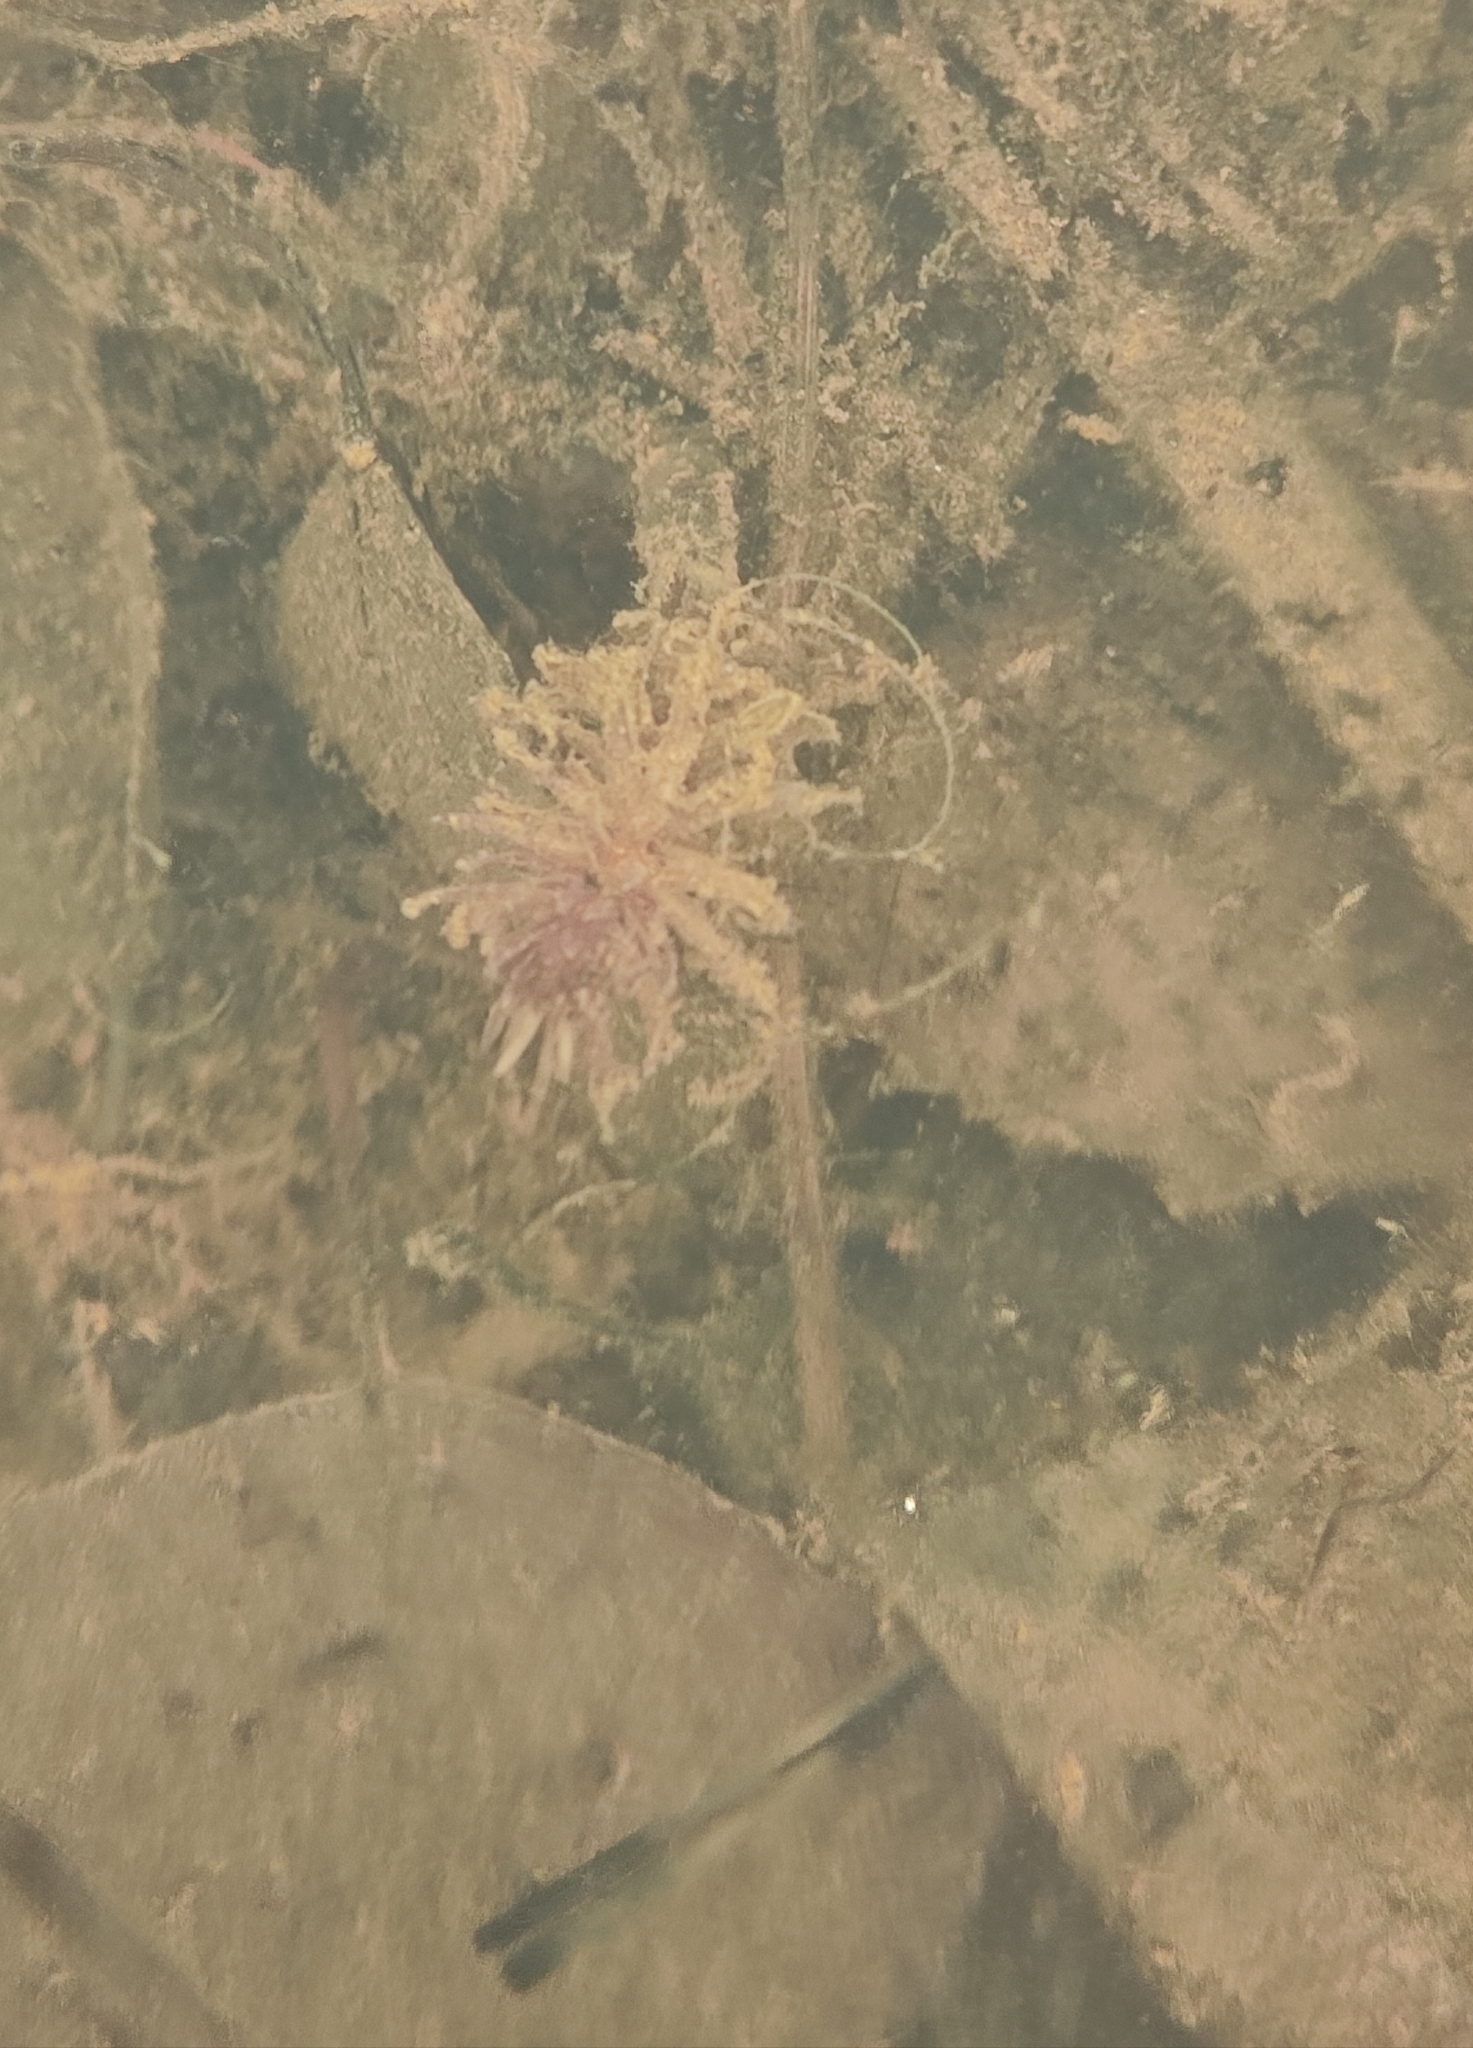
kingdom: Plantae
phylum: Tracheophyta
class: Magnoliopsida
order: Lamiales
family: Plantaginaceae
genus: Hippuris
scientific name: Hippuris vulgaris
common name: Mare's-tail
